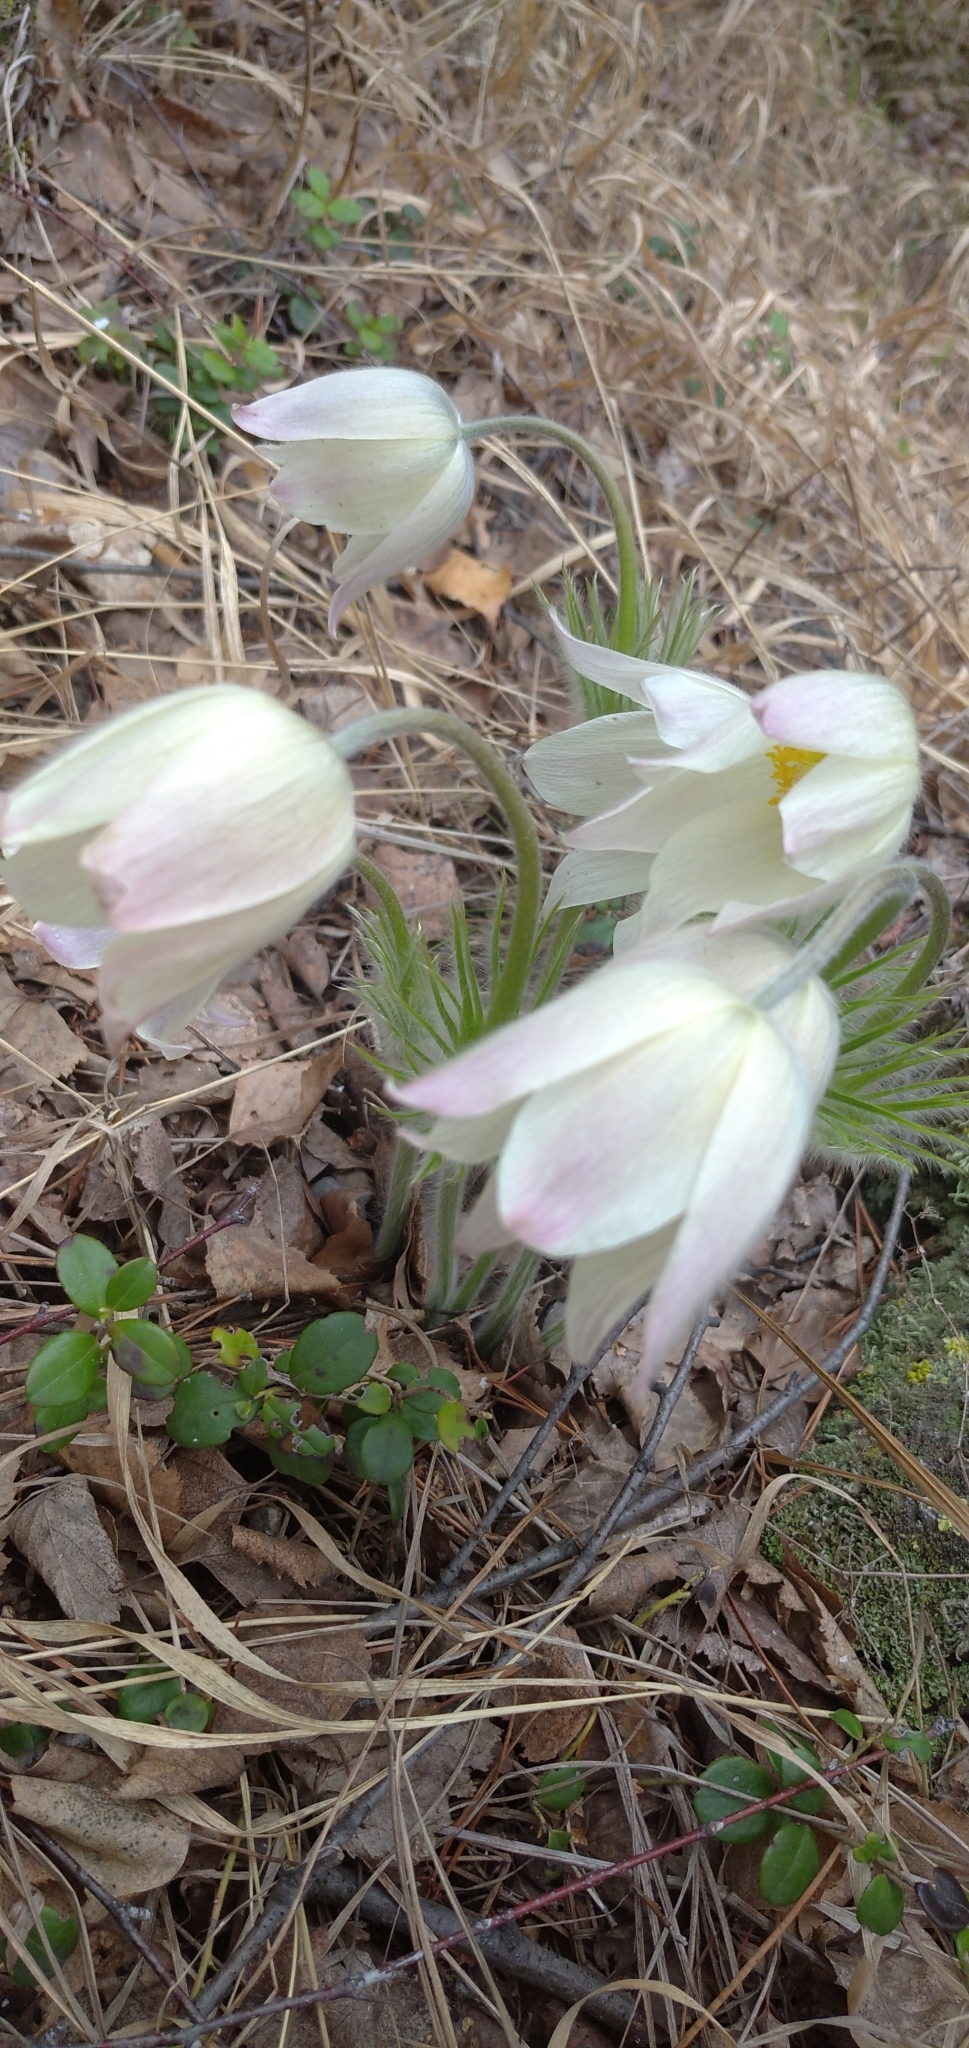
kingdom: Plantae
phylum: Tracheophyta
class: Magnoliopsida
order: Ranunculales
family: Ranunculaceae
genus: Pulsatilla
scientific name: Pulsatilla patens
